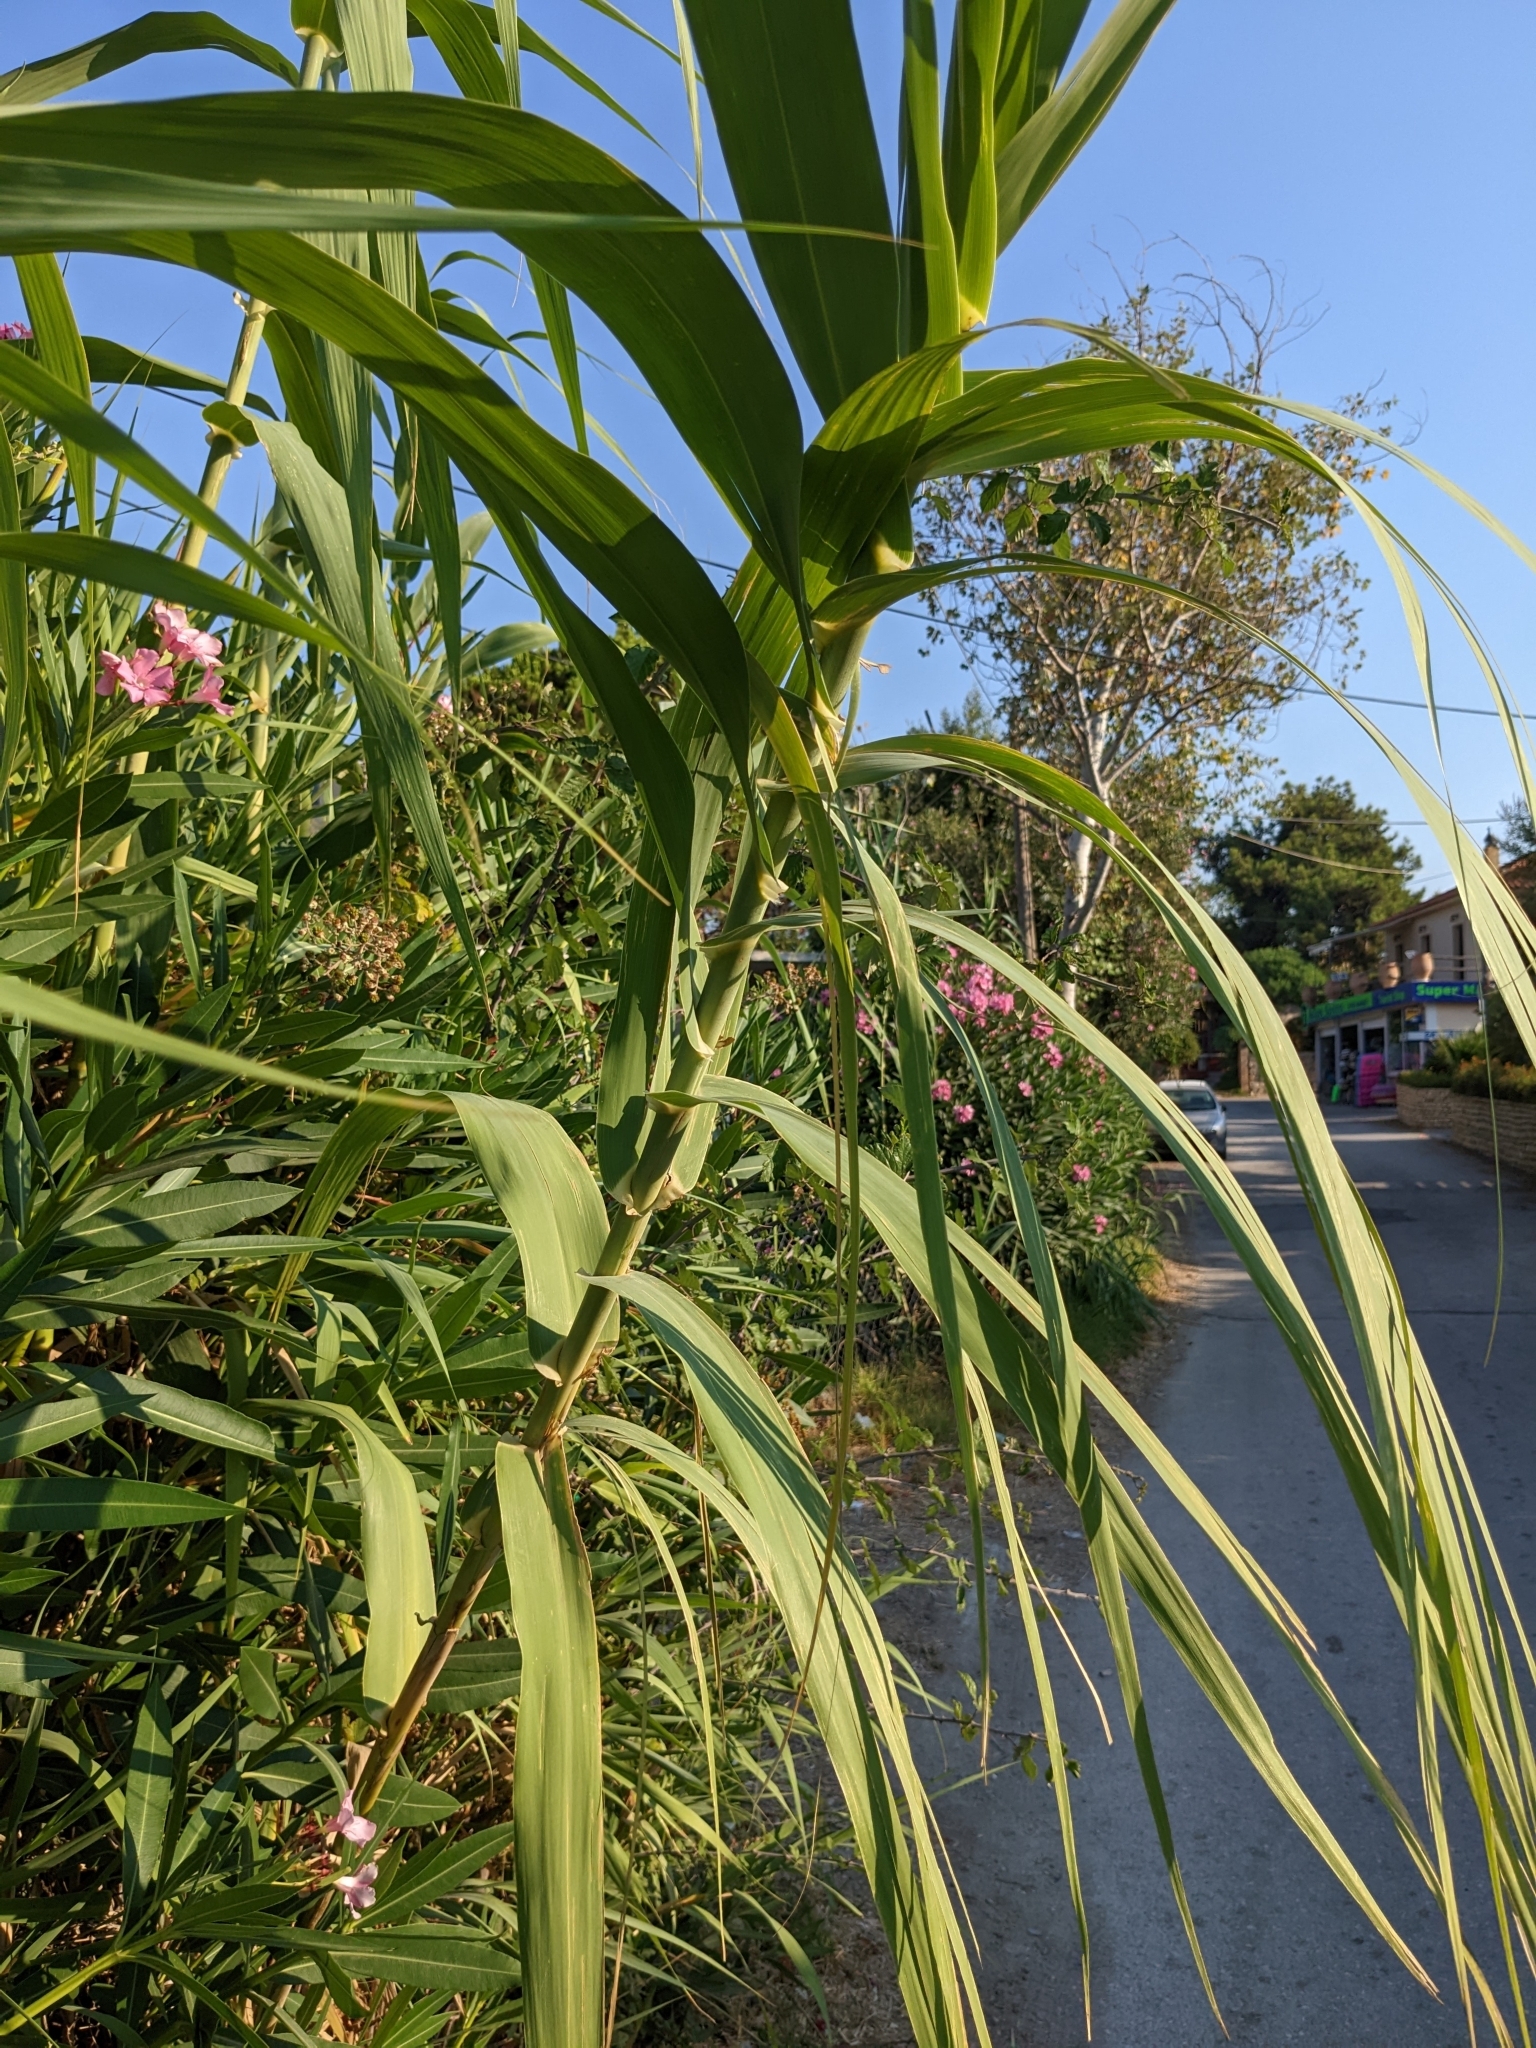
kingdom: Plantae
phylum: Tracheophyta
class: Liliopsida
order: Poales
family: Poaceae
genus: Arundo
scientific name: Arundo donax
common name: Giant reed
